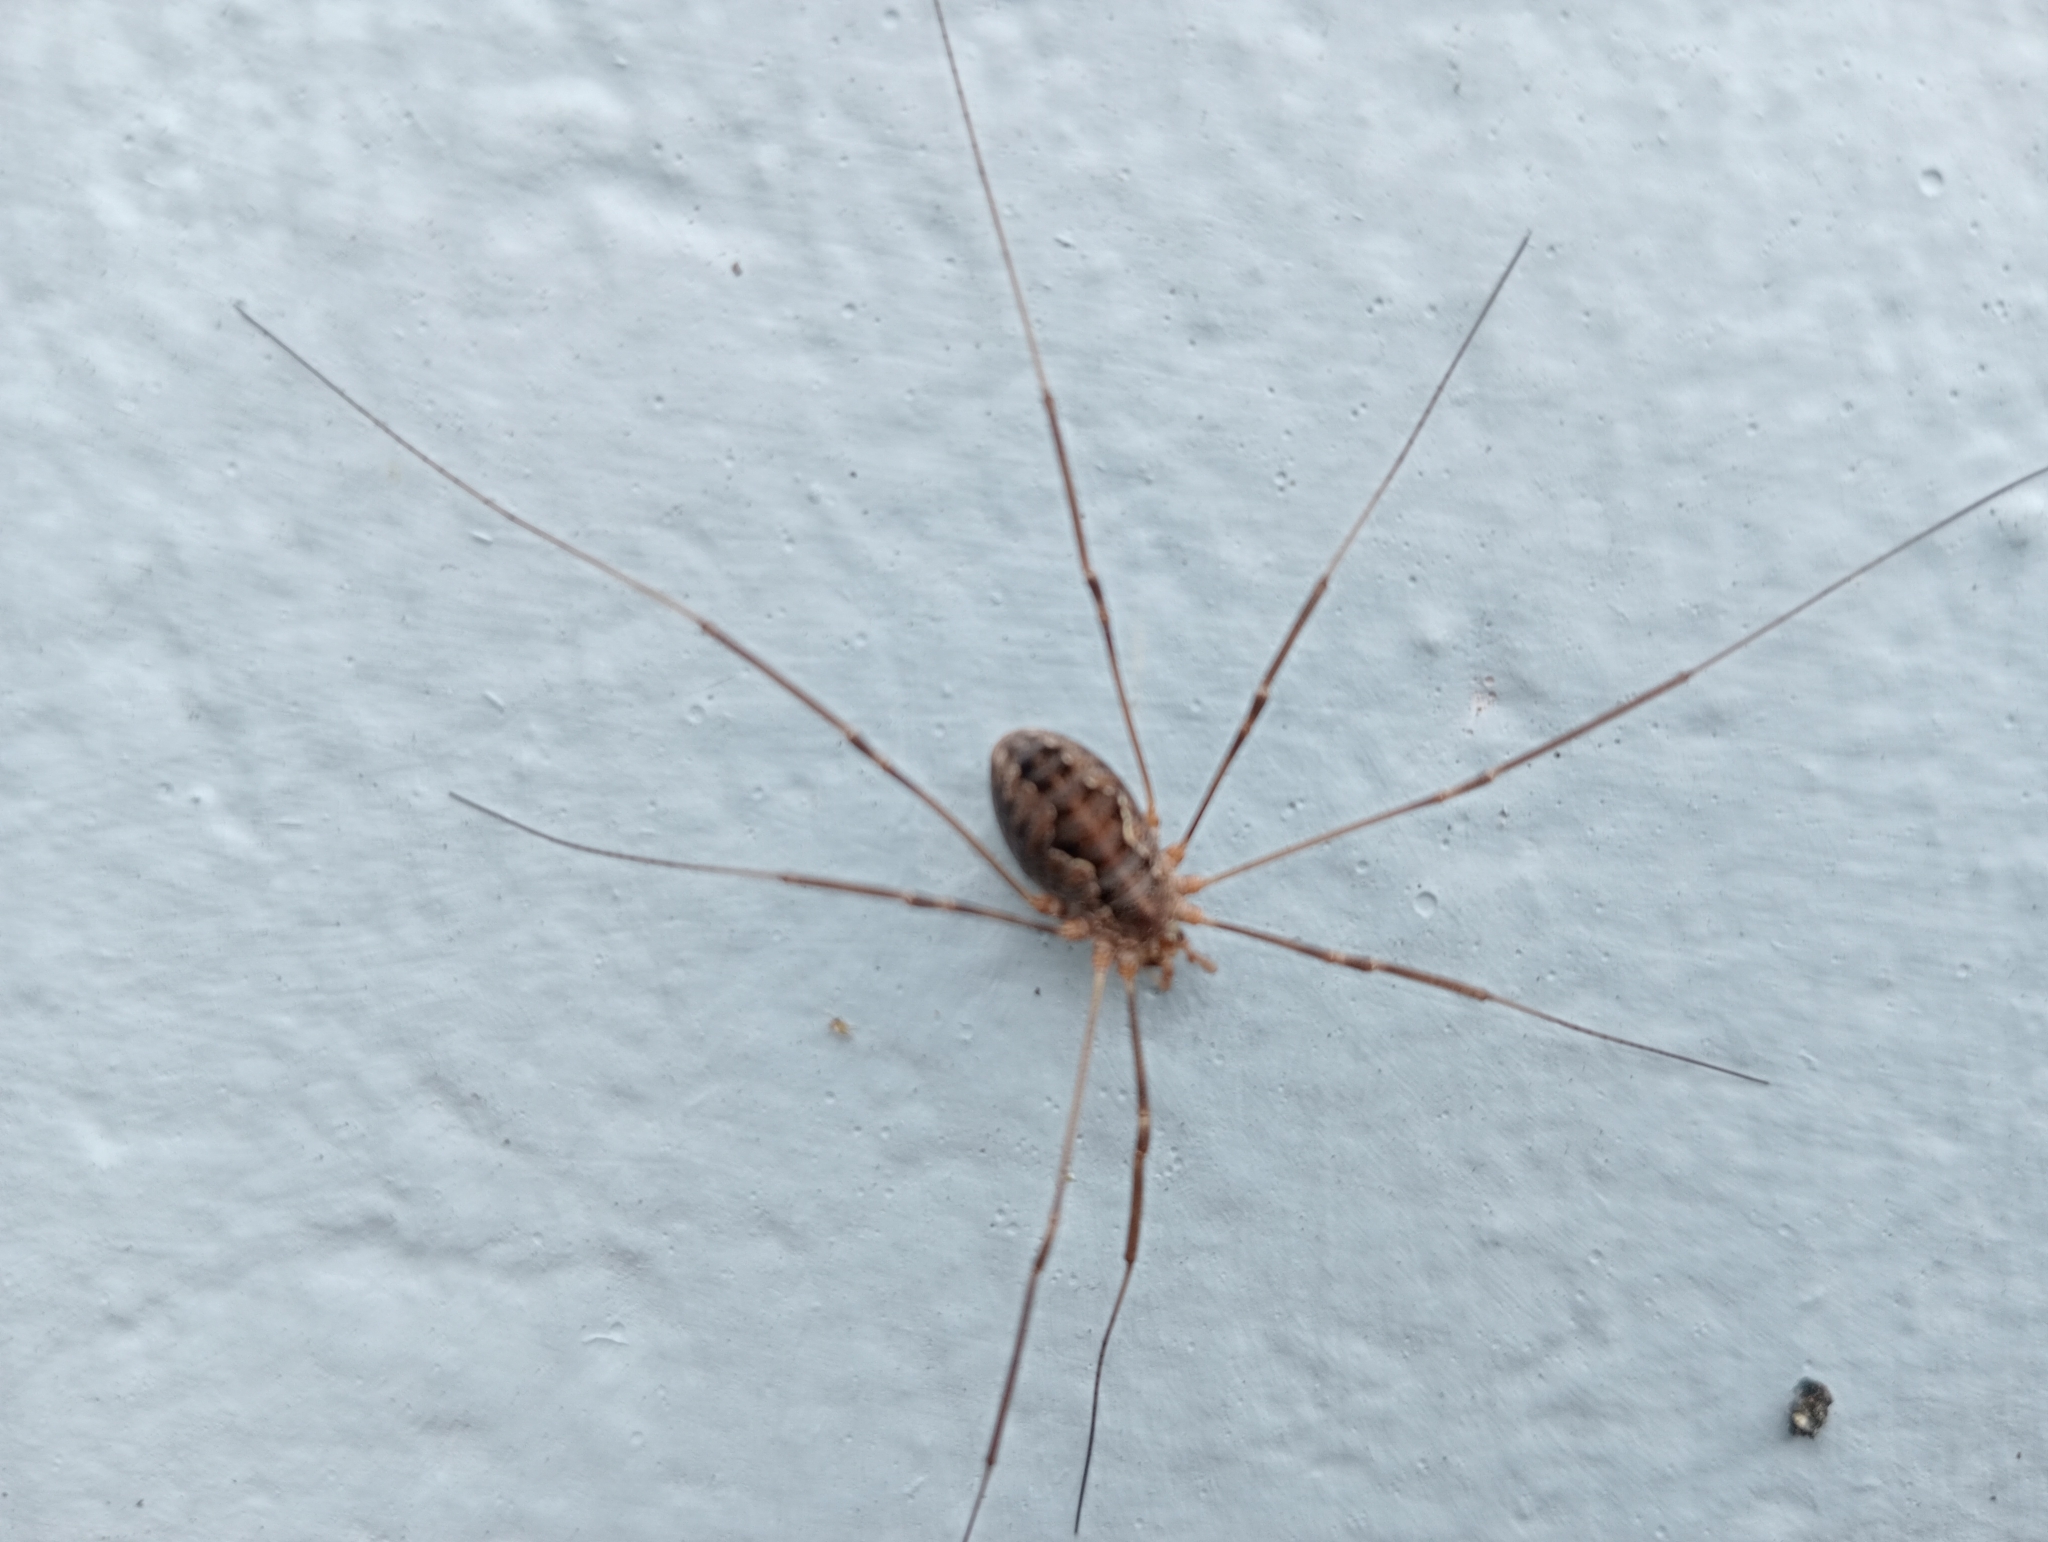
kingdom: Animalia
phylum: Arthropoda
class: Arachnida
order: Opiliones
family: Phalangiidae
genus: Phalangium
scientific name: Phalangium opilio
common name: Daddy longleg
